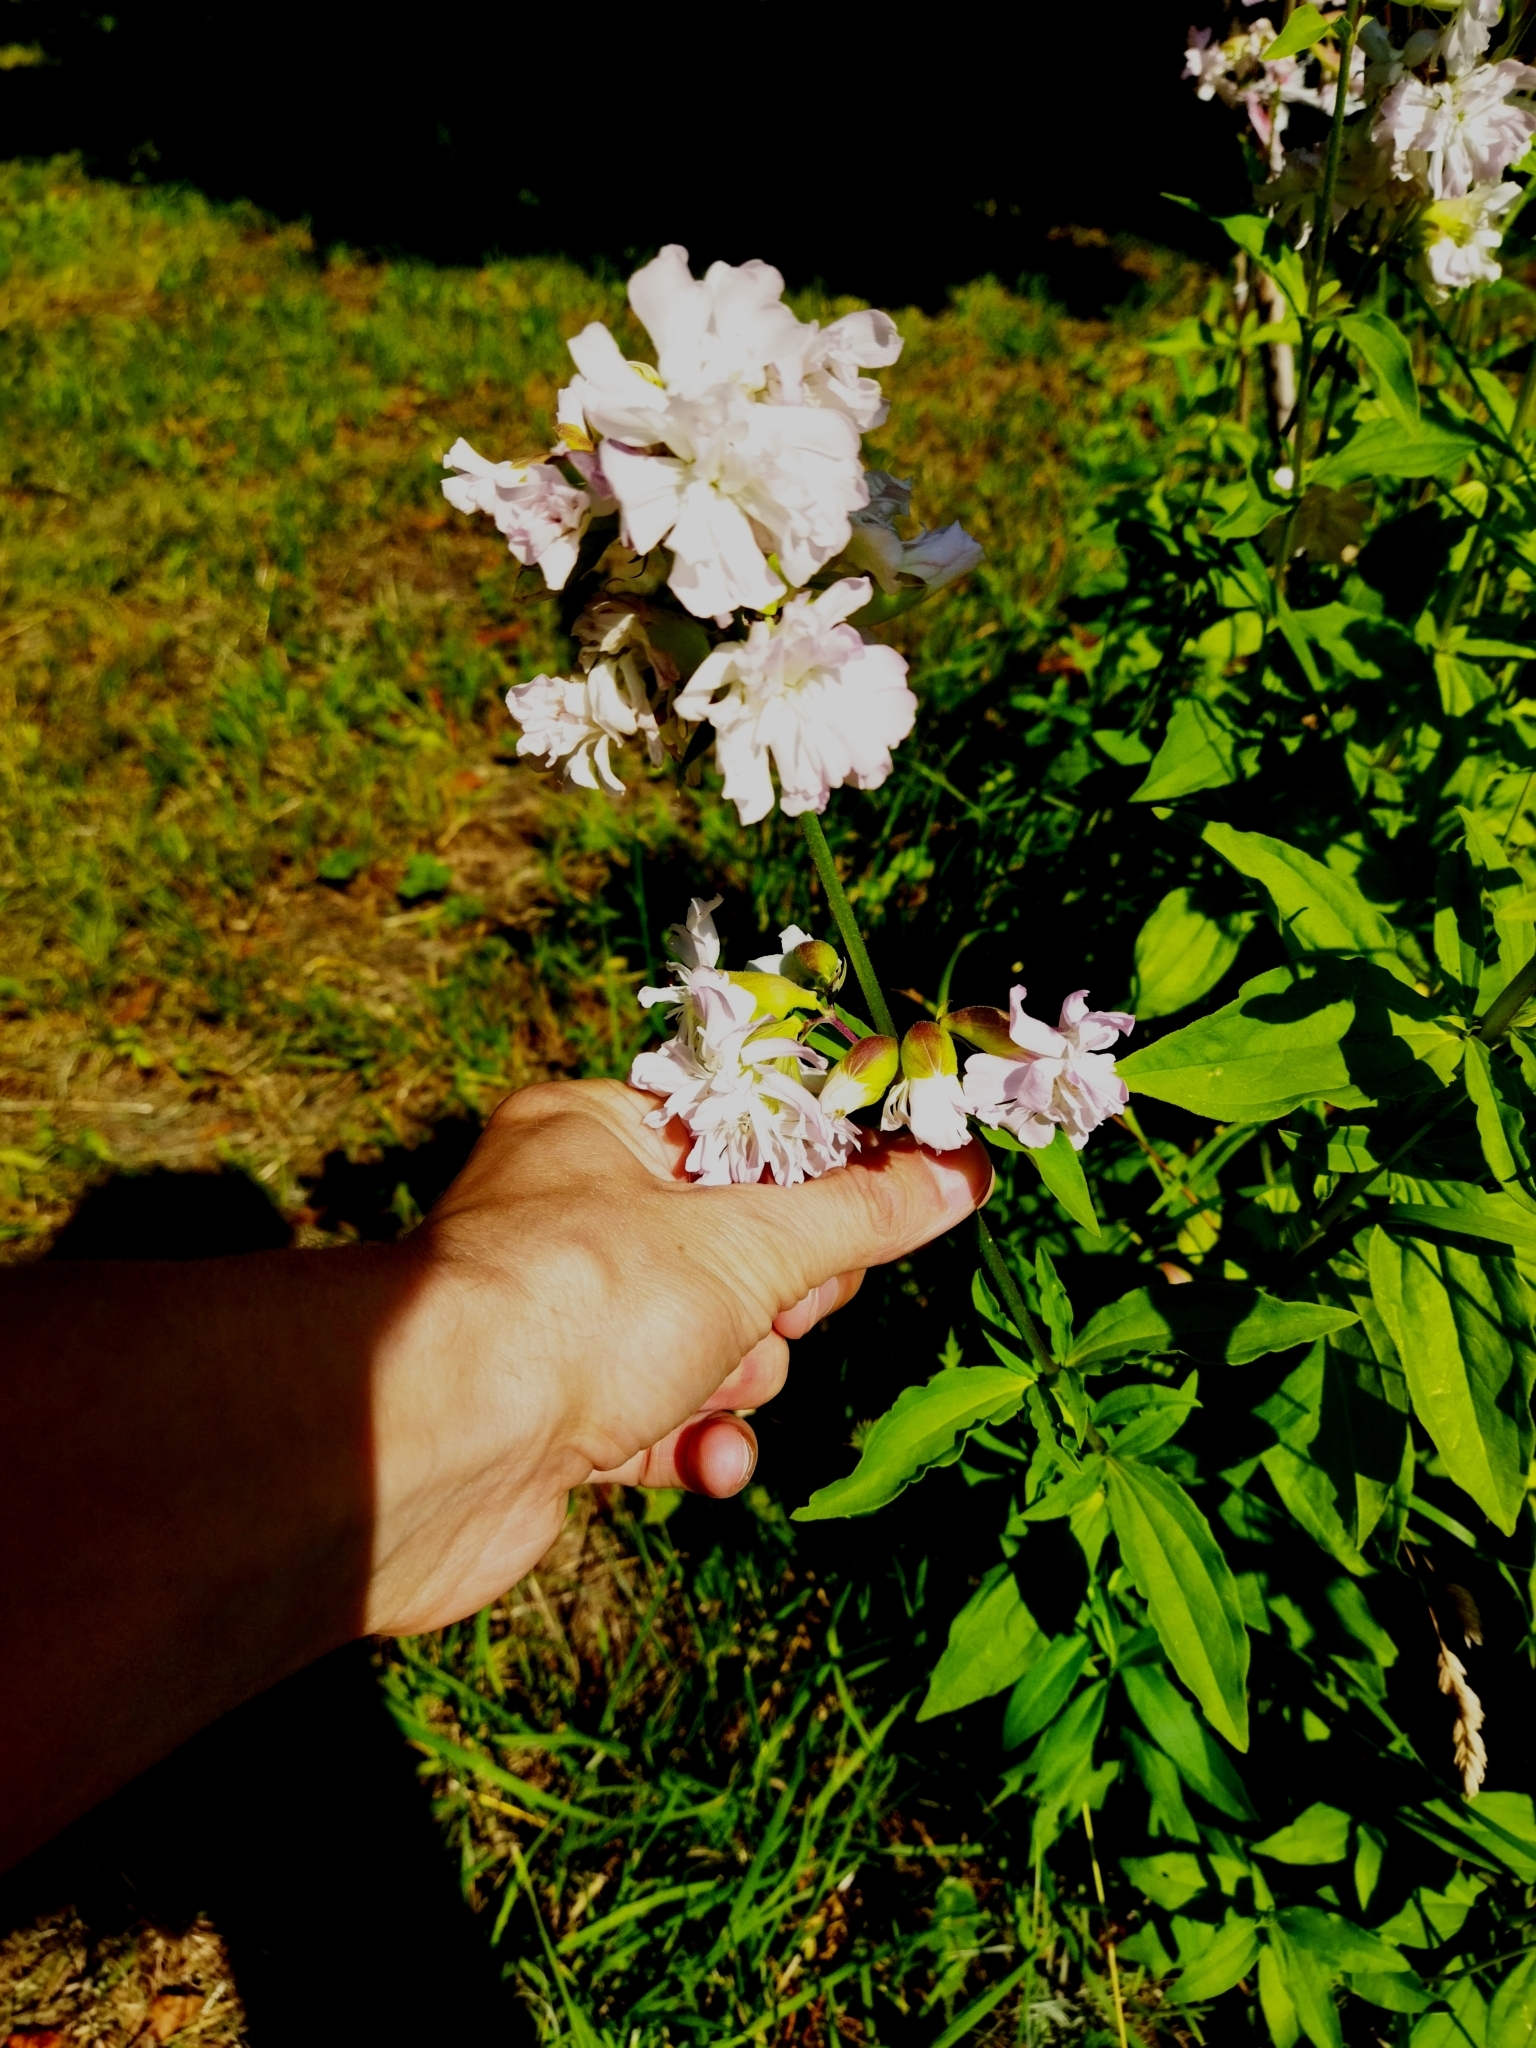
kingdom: Plantae
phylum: Tracheophyta
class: Magnoliopsida
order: Caryophyllales
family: Caryophyllaceae
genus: Saponaria
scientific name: Saponaria officinalis
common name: Soapwort
